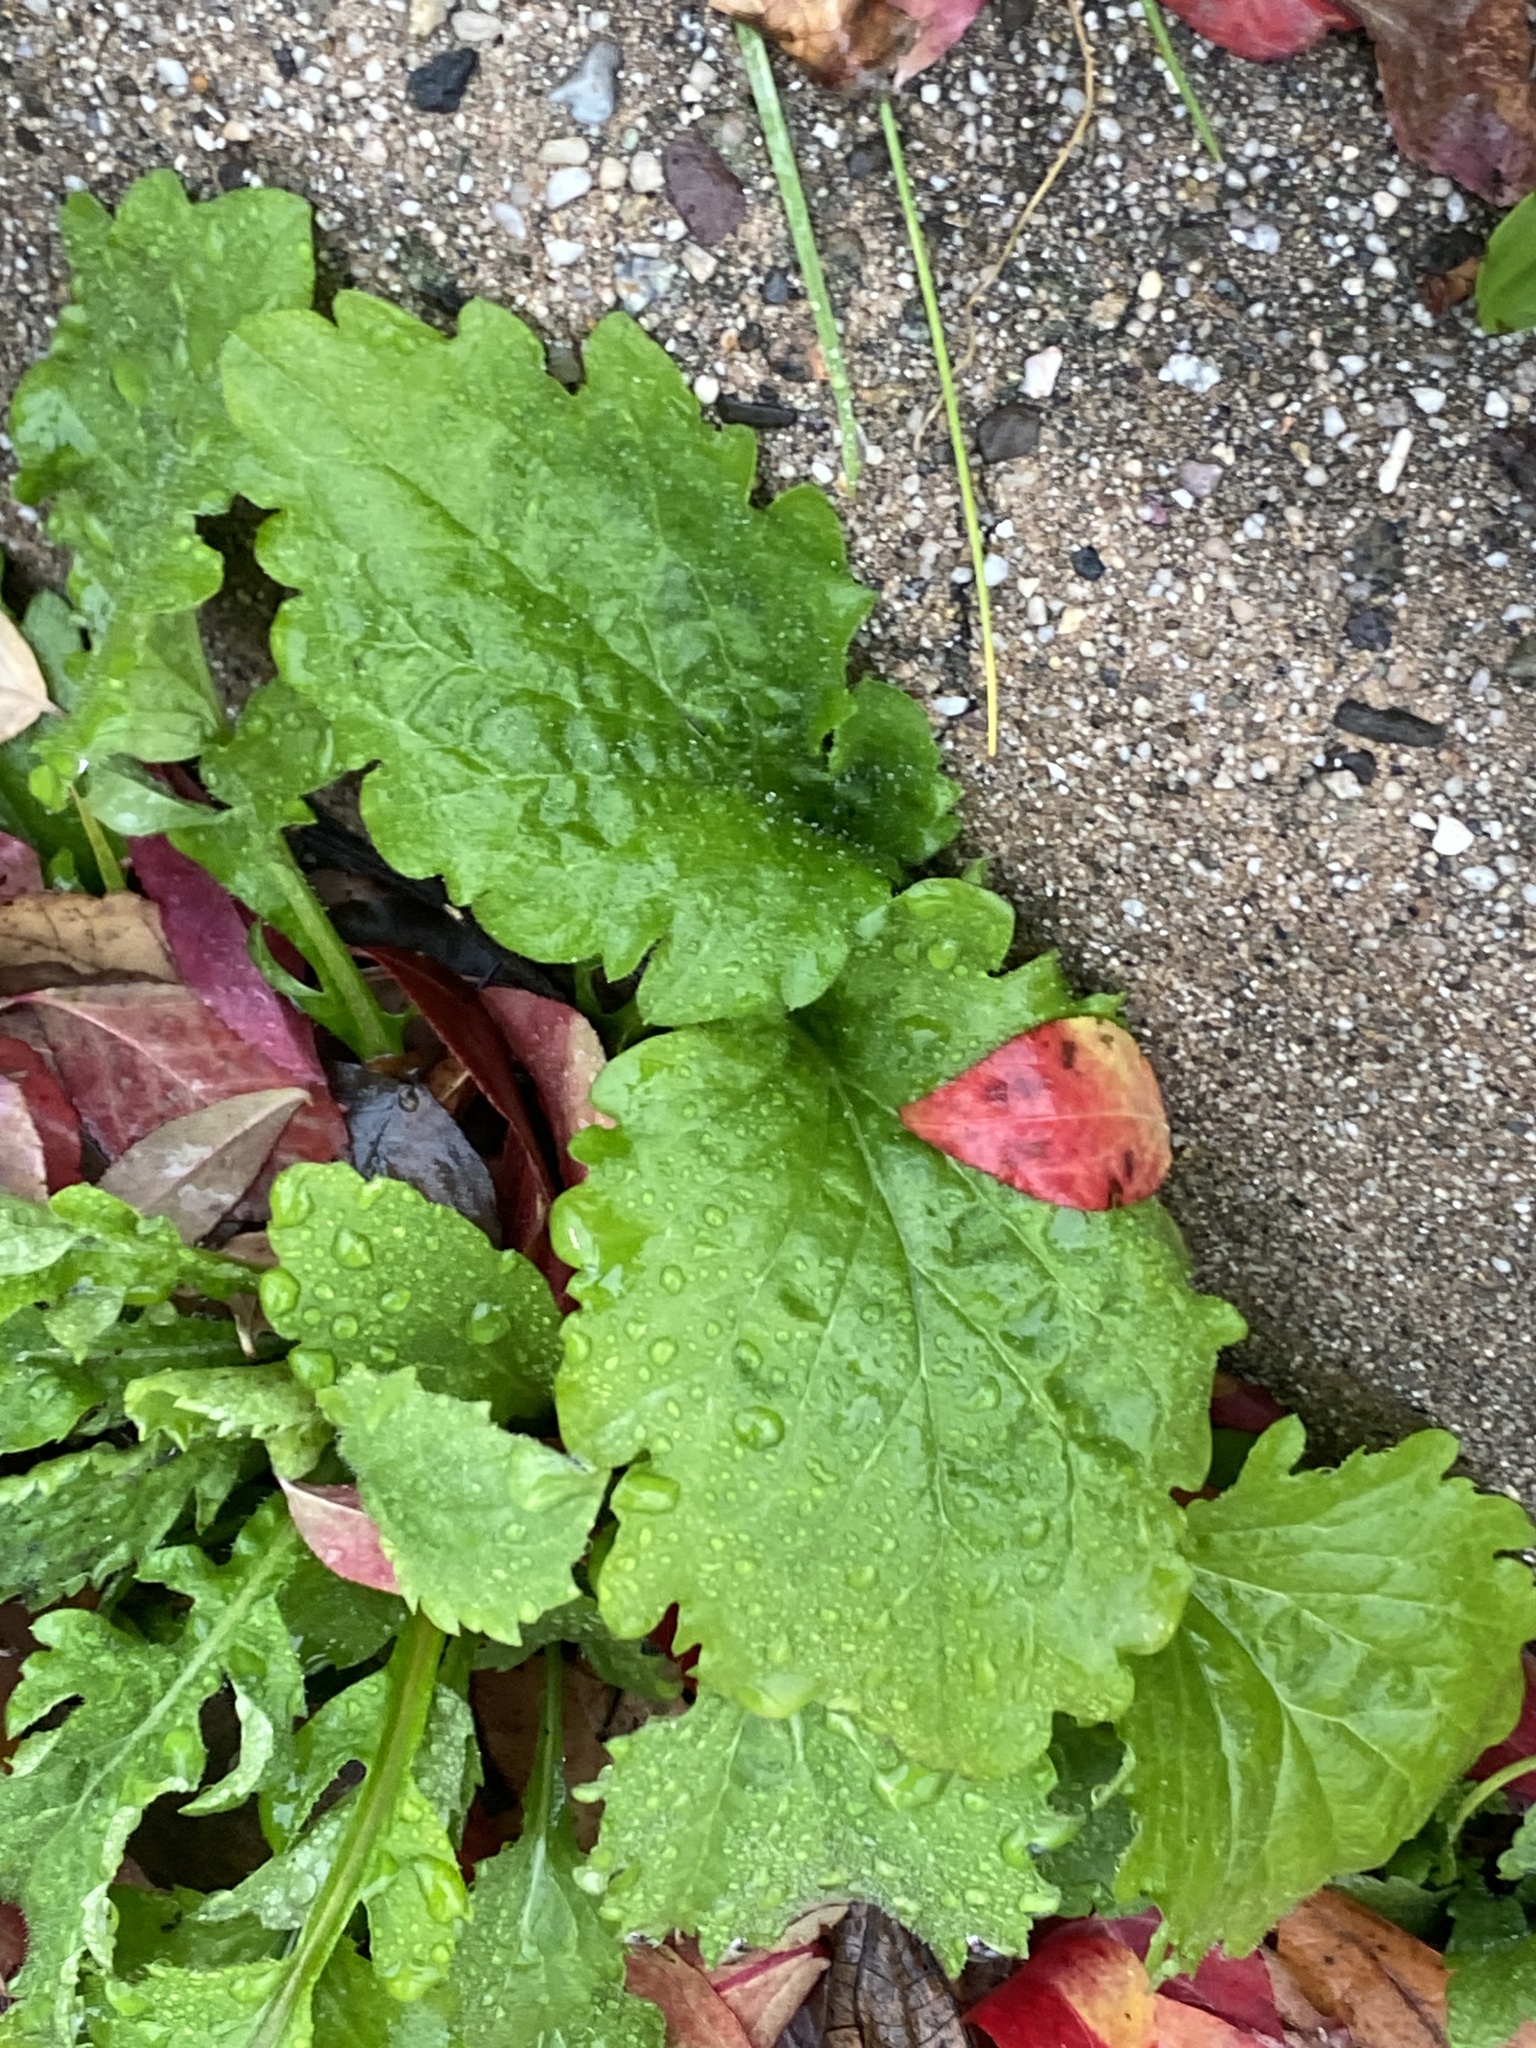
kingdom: Plantae
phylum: Tracheophyta
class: Magnoliopsida
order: Asterales
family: Asteraceae
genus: Erigeron
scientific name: Erigeron annuus
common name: Tall fleabane
